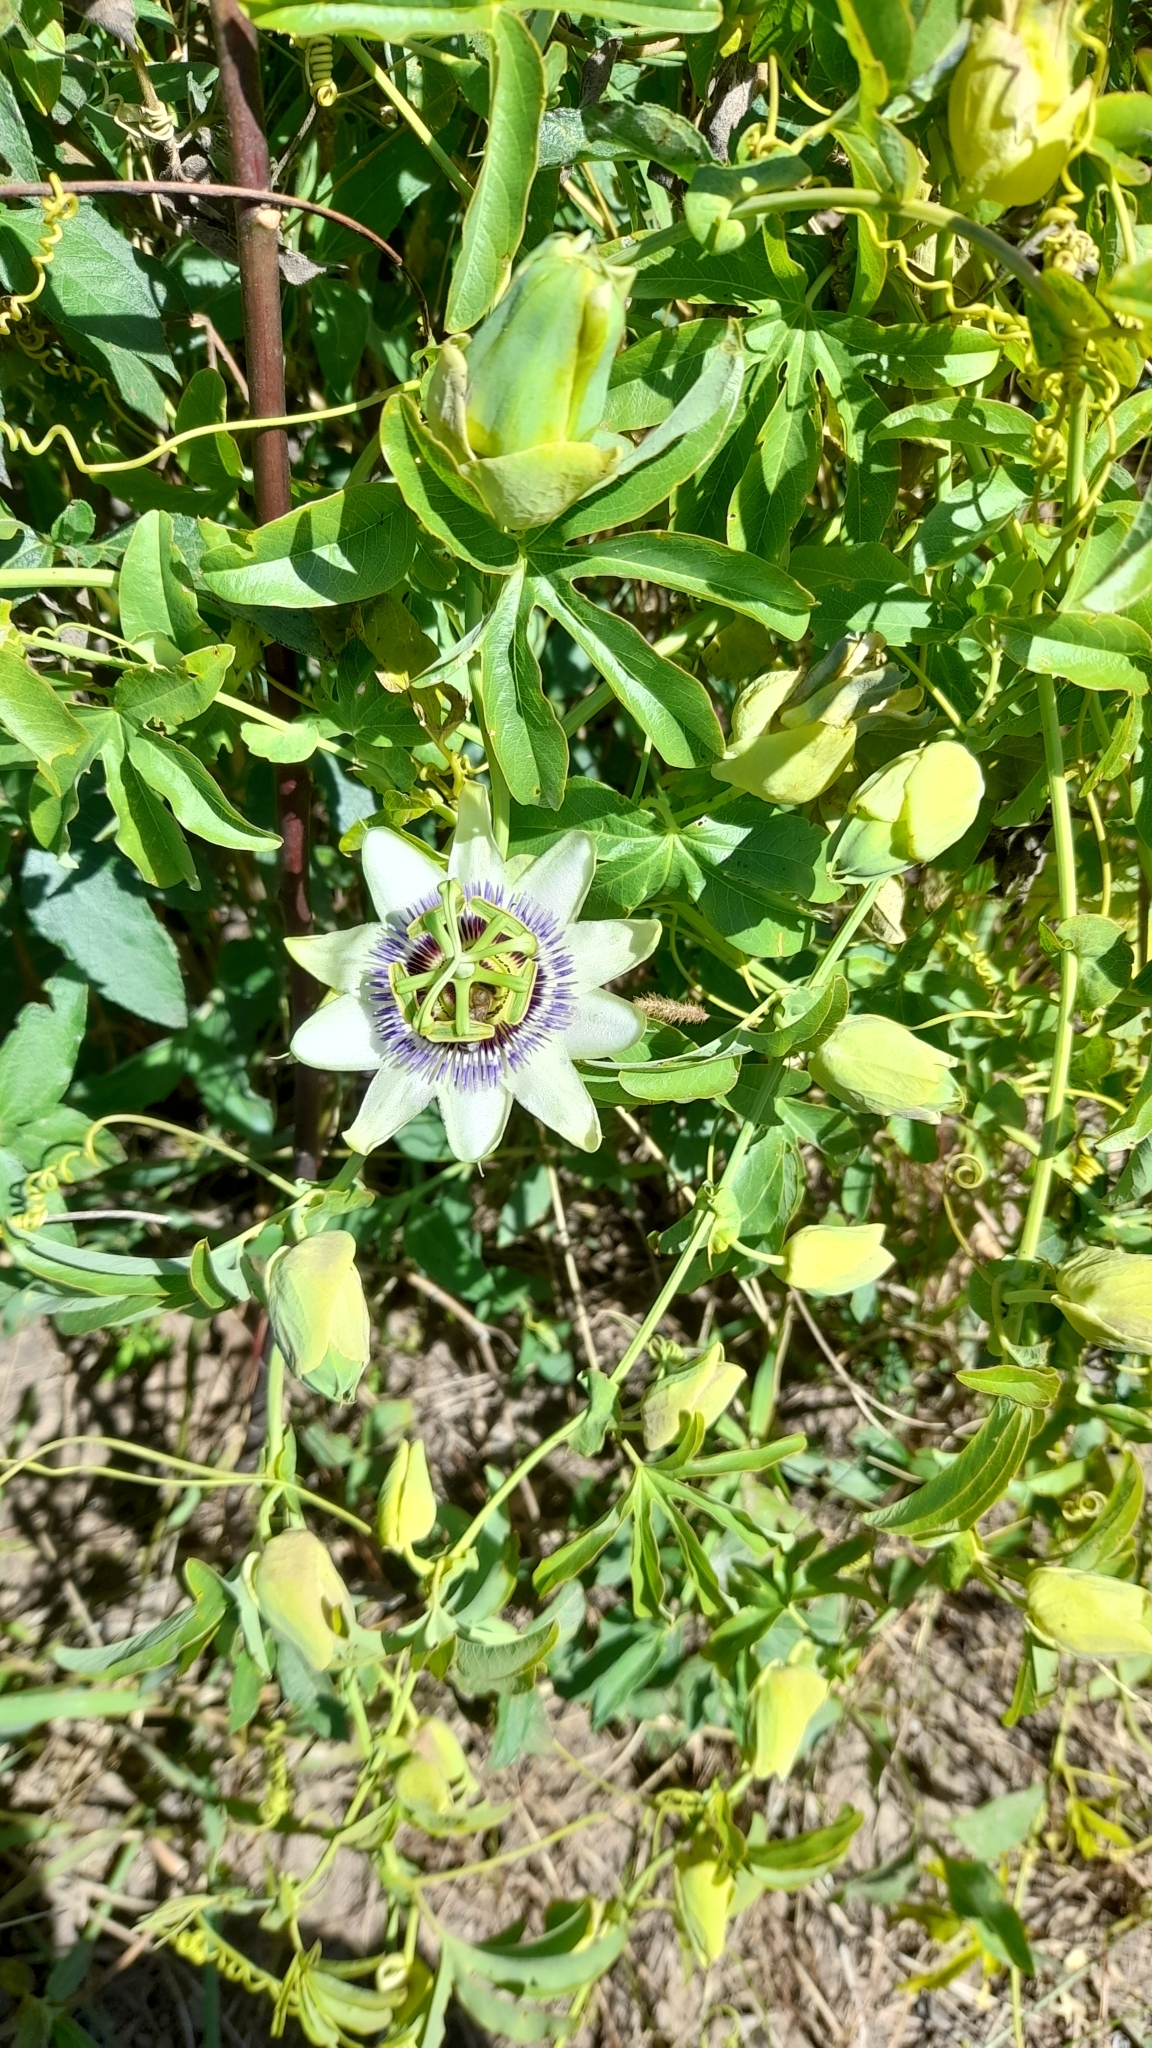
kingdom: Plantae
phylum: Tracheophyta
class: Magnoliopsida
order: Malpighiales
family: Passifloraceae
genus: Passiflora
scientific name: Passiflora caerulea
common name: Blue passionflower
